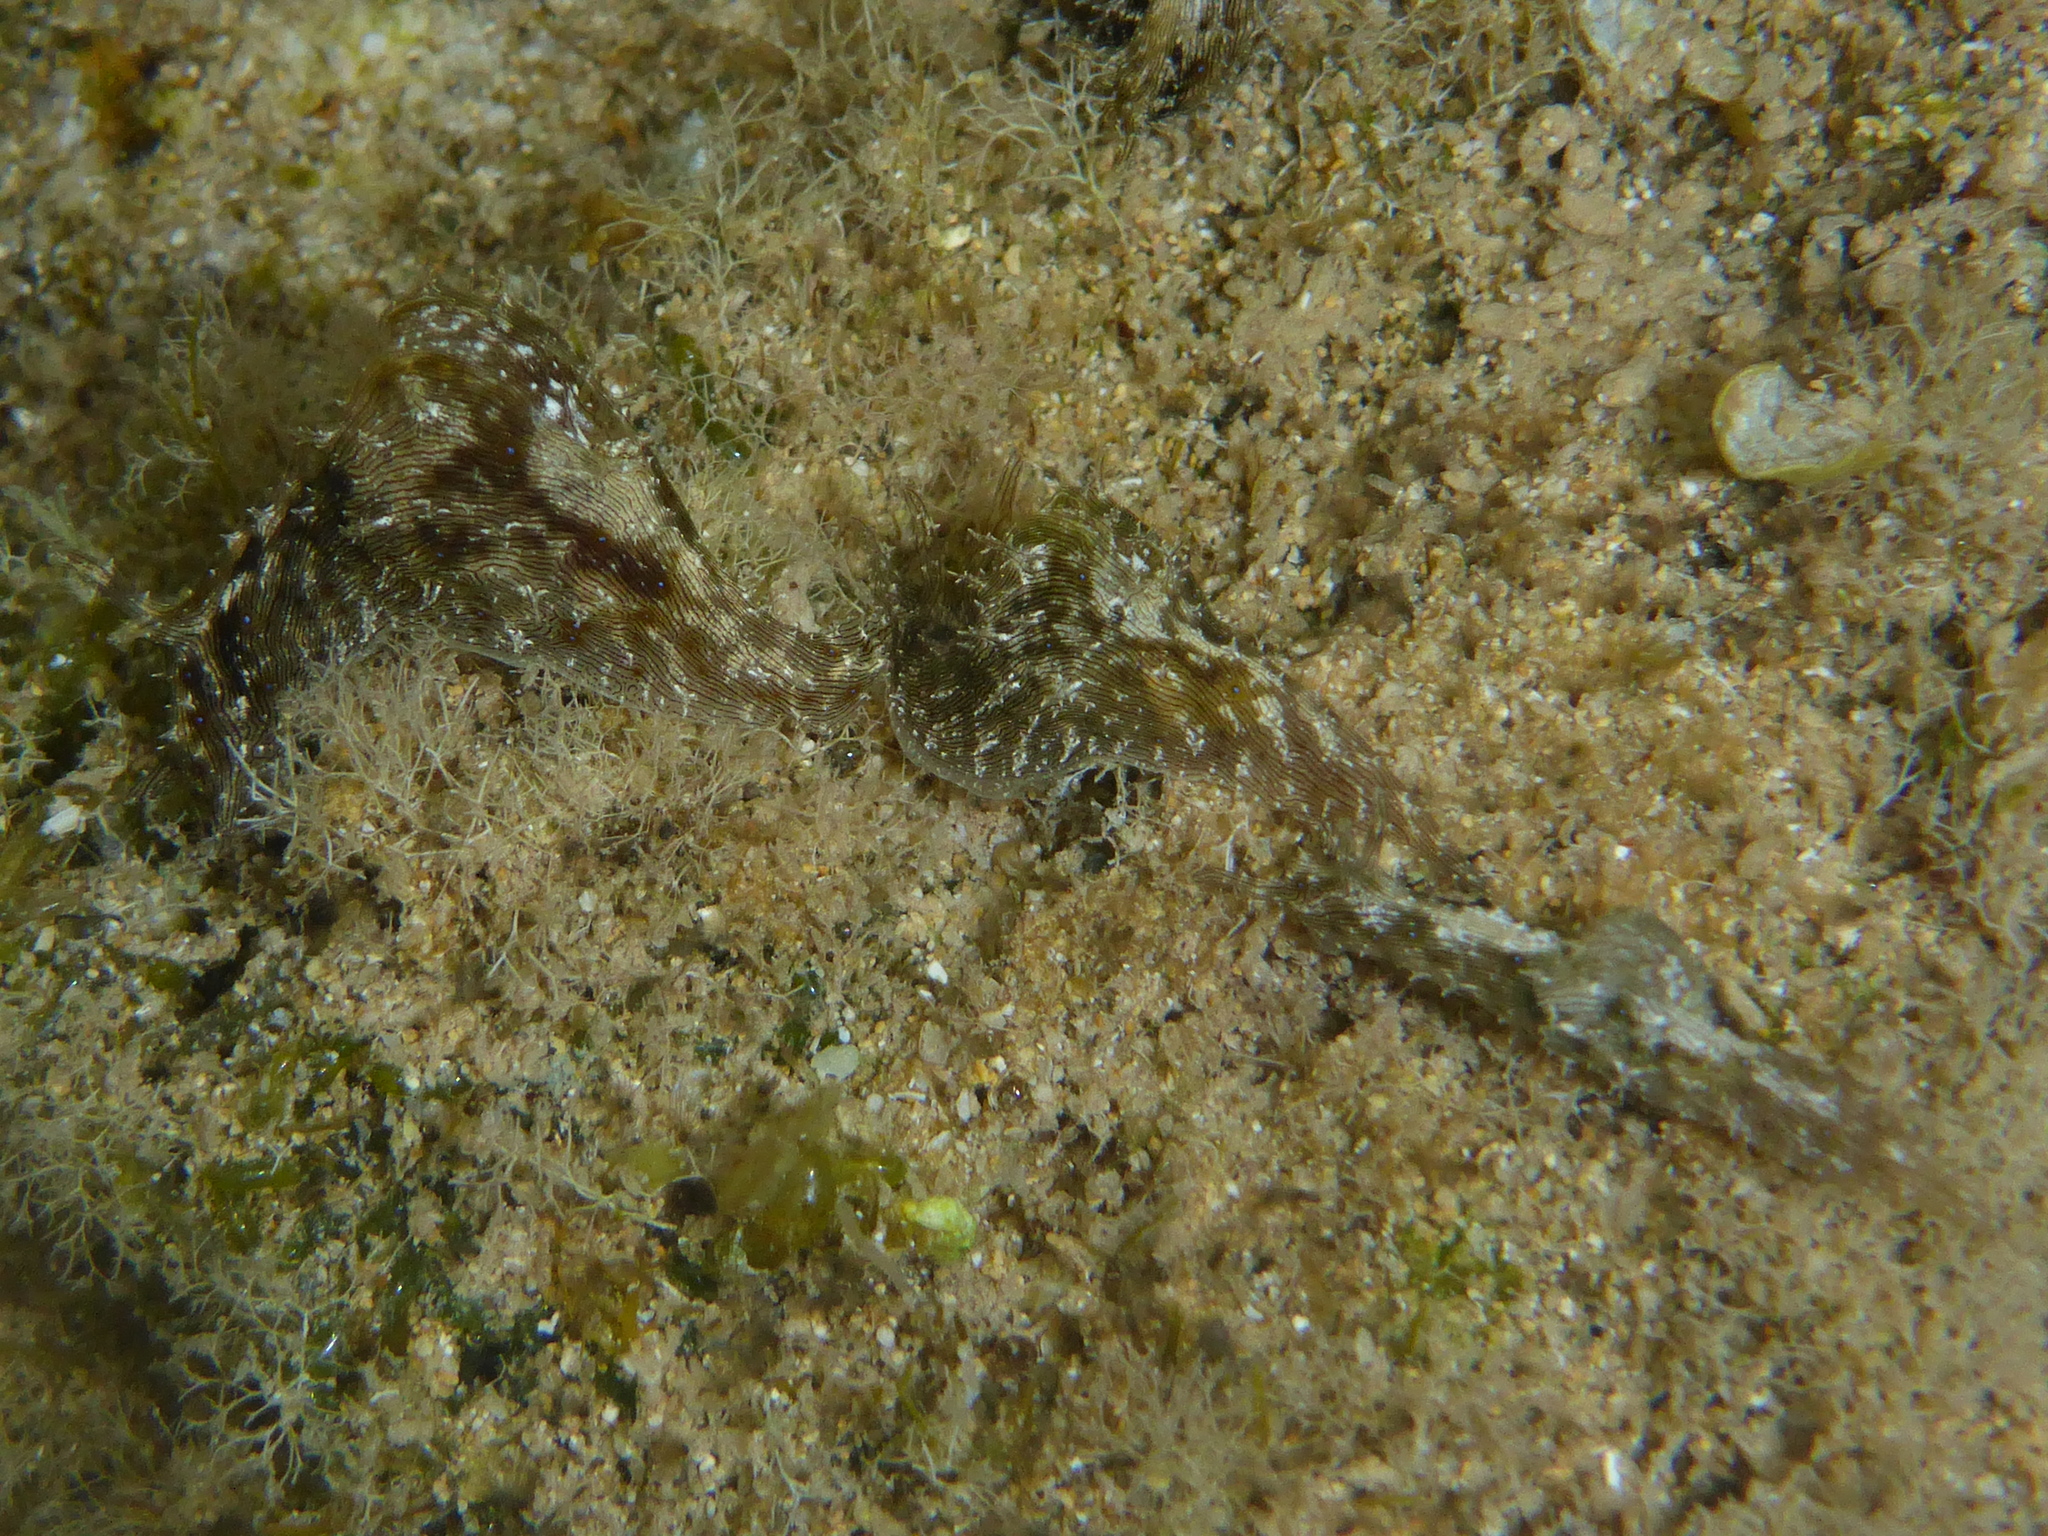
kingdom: Animalia
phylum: Mollusca
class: Gastropoda
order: Aplysiida
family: Aplysiidae
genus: Stylocheilus
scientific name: Stylocheilus striatus
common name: Striated seahare
